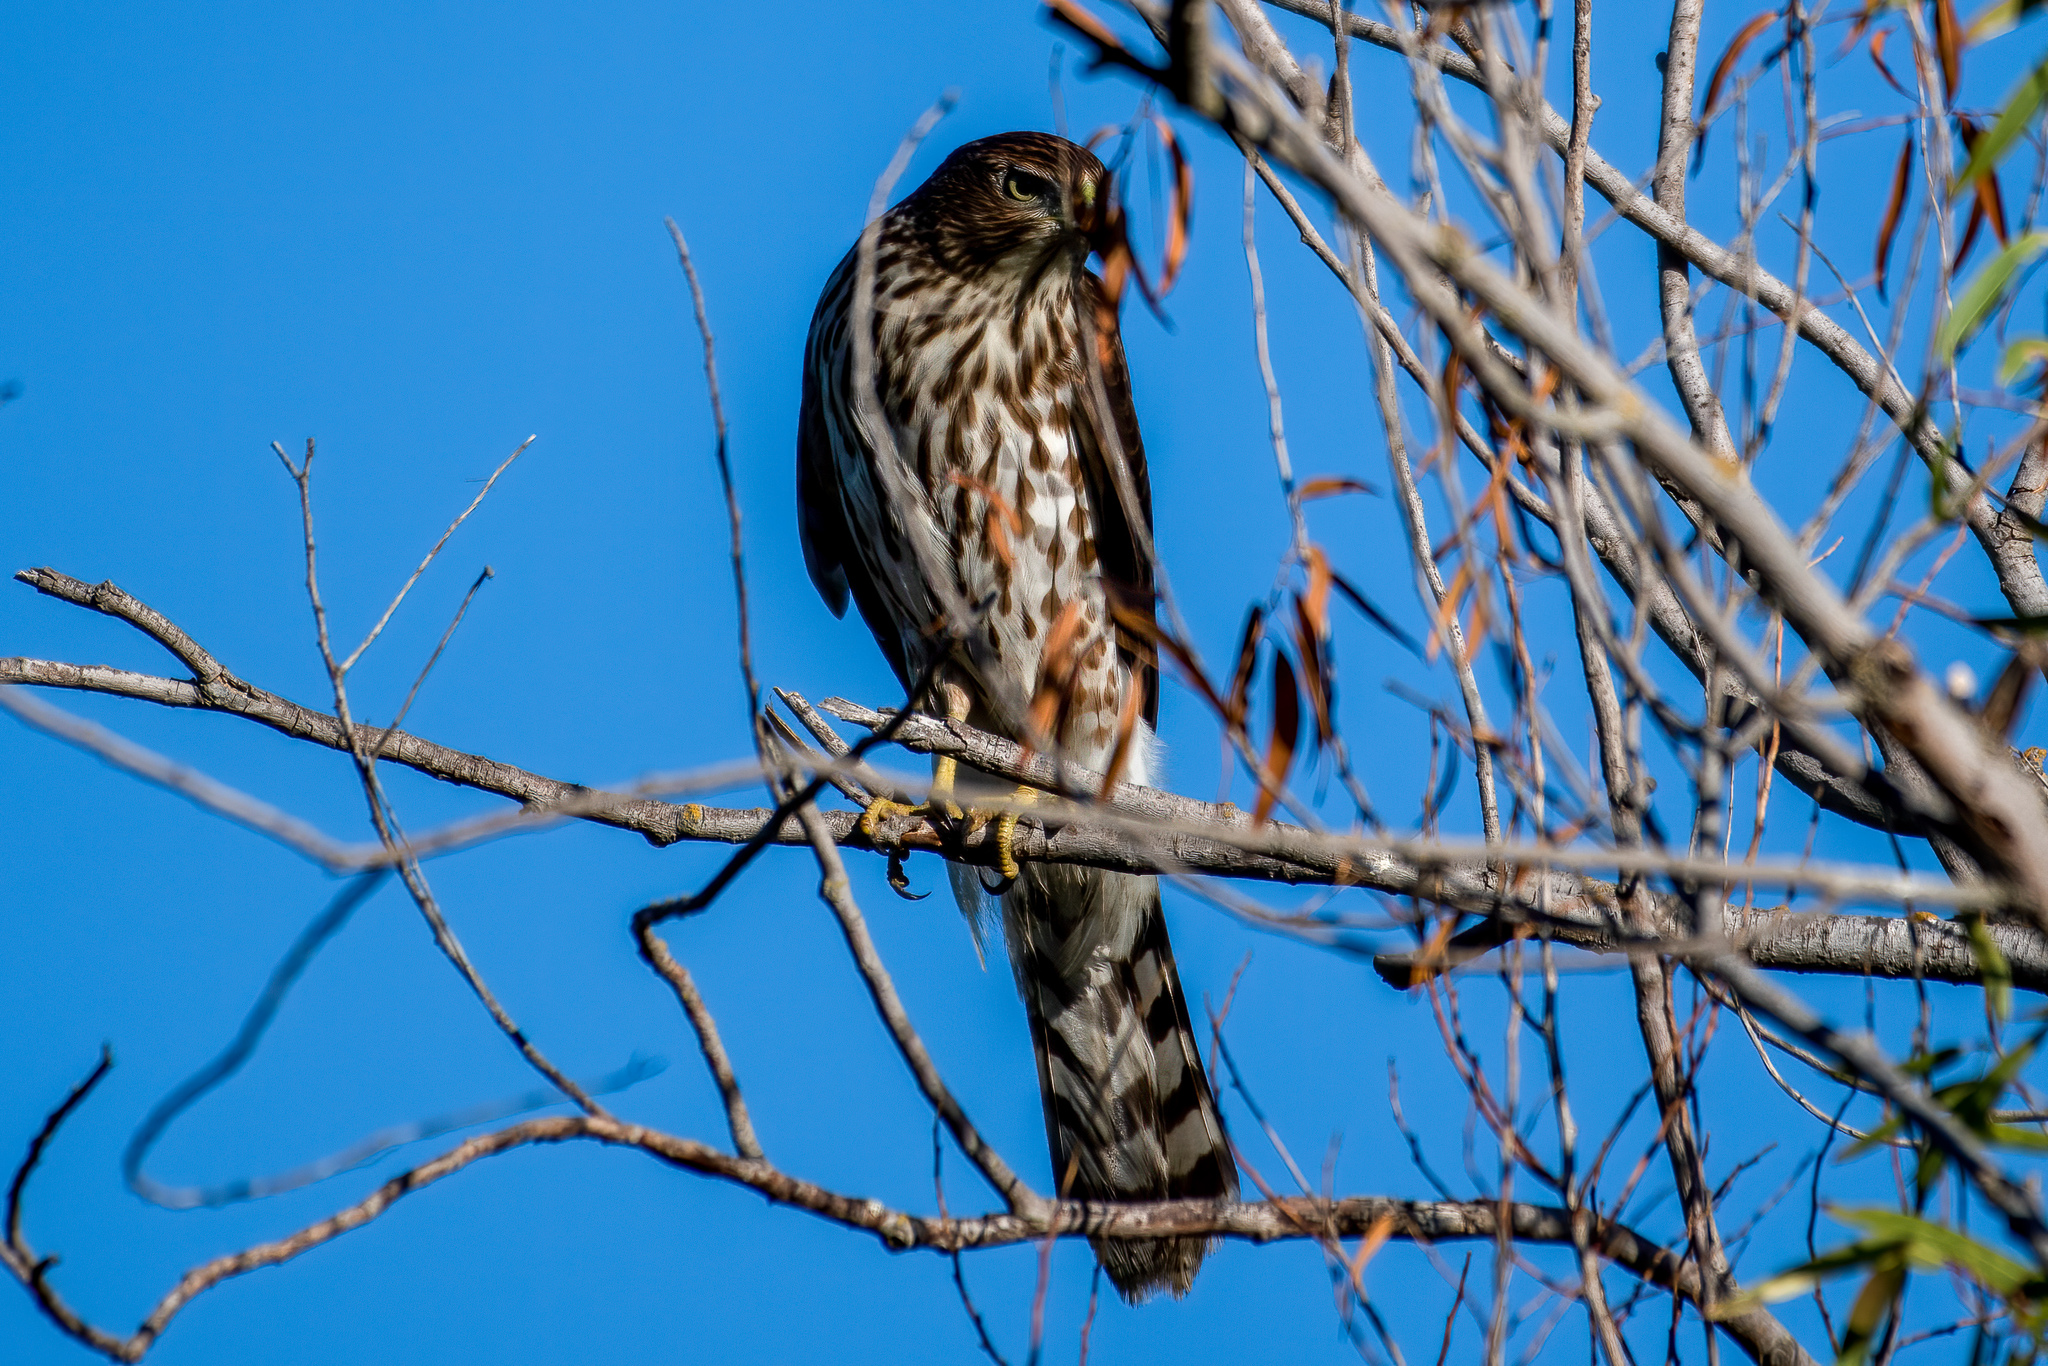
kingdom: Animalia
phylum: Chordata
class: Aves
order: Accipitriformes
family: Accipitridae
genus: Accipiter
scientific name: Accipiter cooperii
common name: Cooper's hawk
